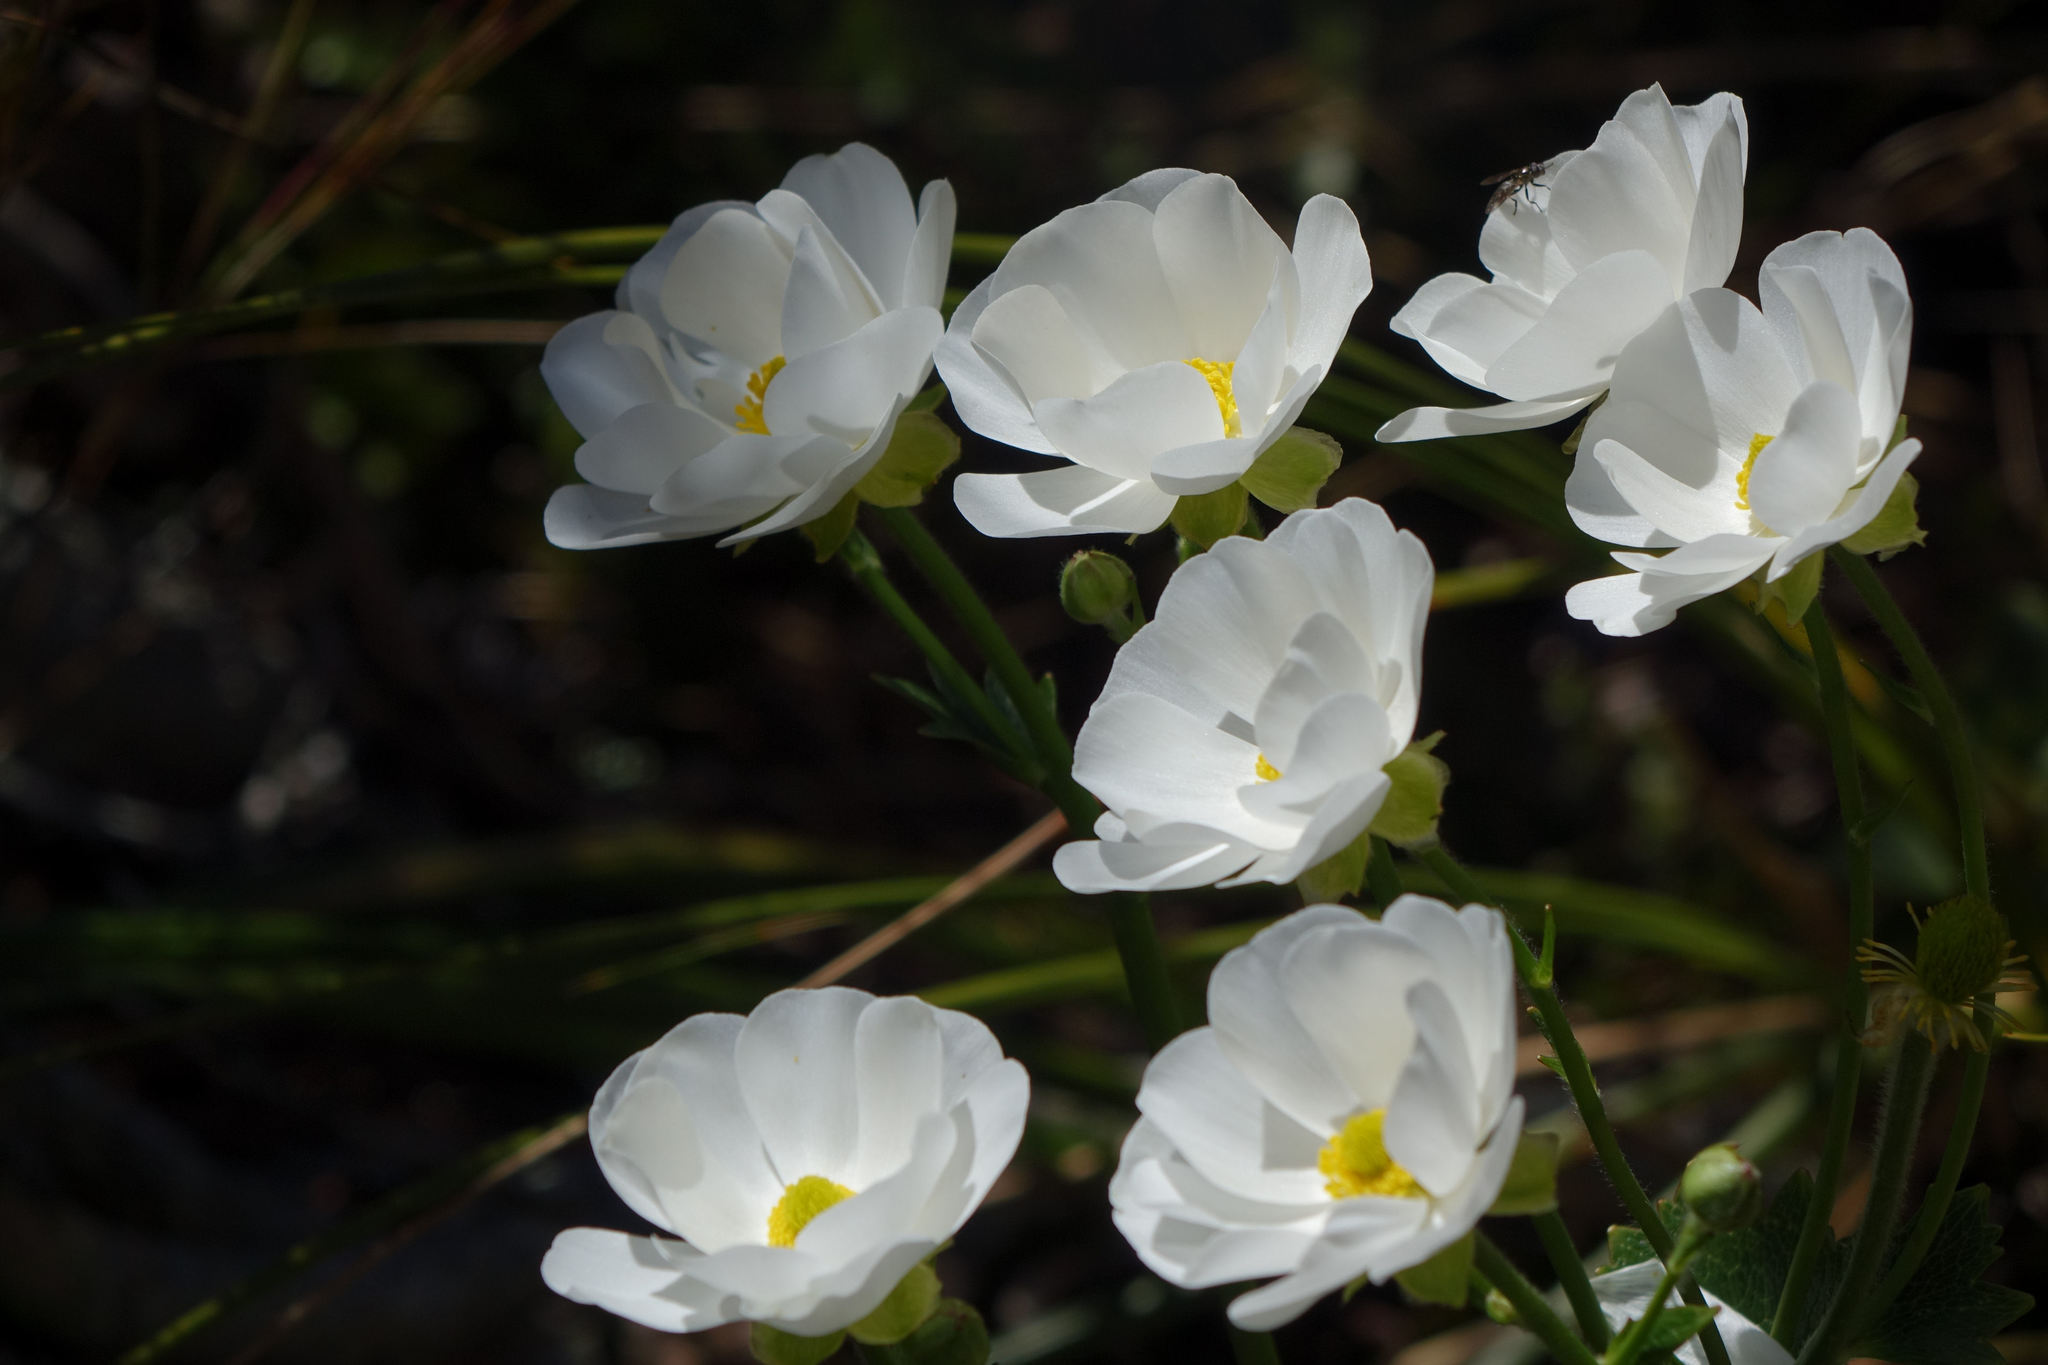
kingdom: Plantae
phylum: Tracheophyta
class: Magnoliopsida
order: Ranunculales
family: Ranunculaceae
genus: Ranunculus
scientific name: Ranunculus lyallii
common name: Mountain-lily
